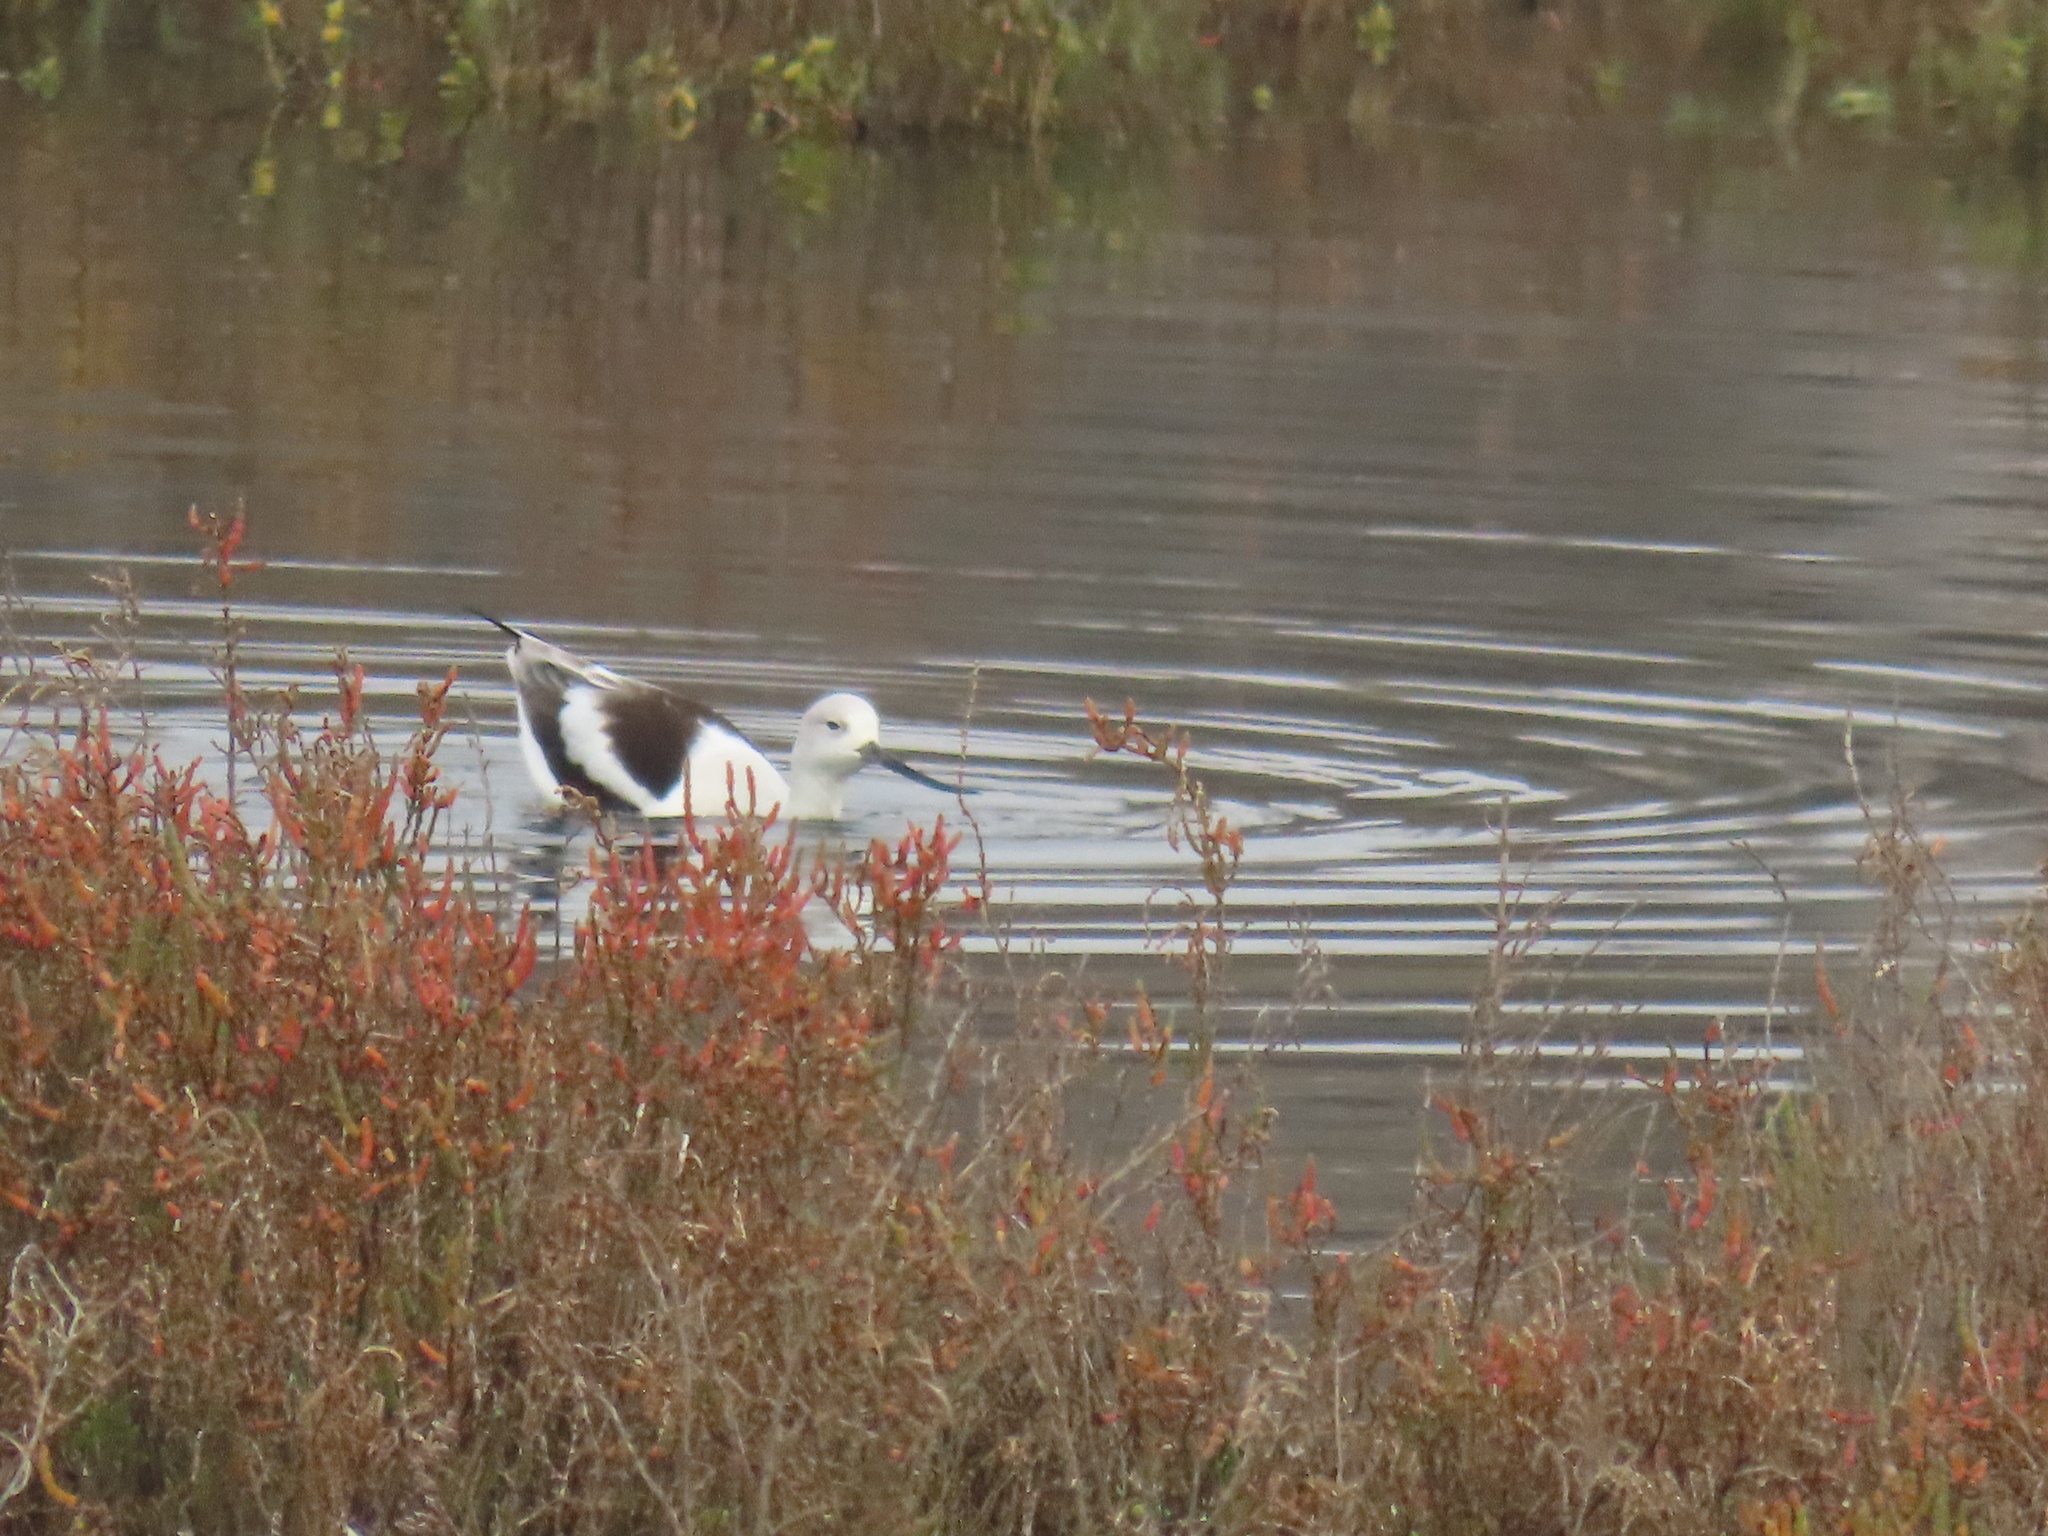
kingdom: Animalia
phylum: Chordata
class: Aves
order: Charadriiformes
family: Recurvirostridae
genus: Recurvirostra
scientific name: Recurvirostra americana
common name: American avocet
